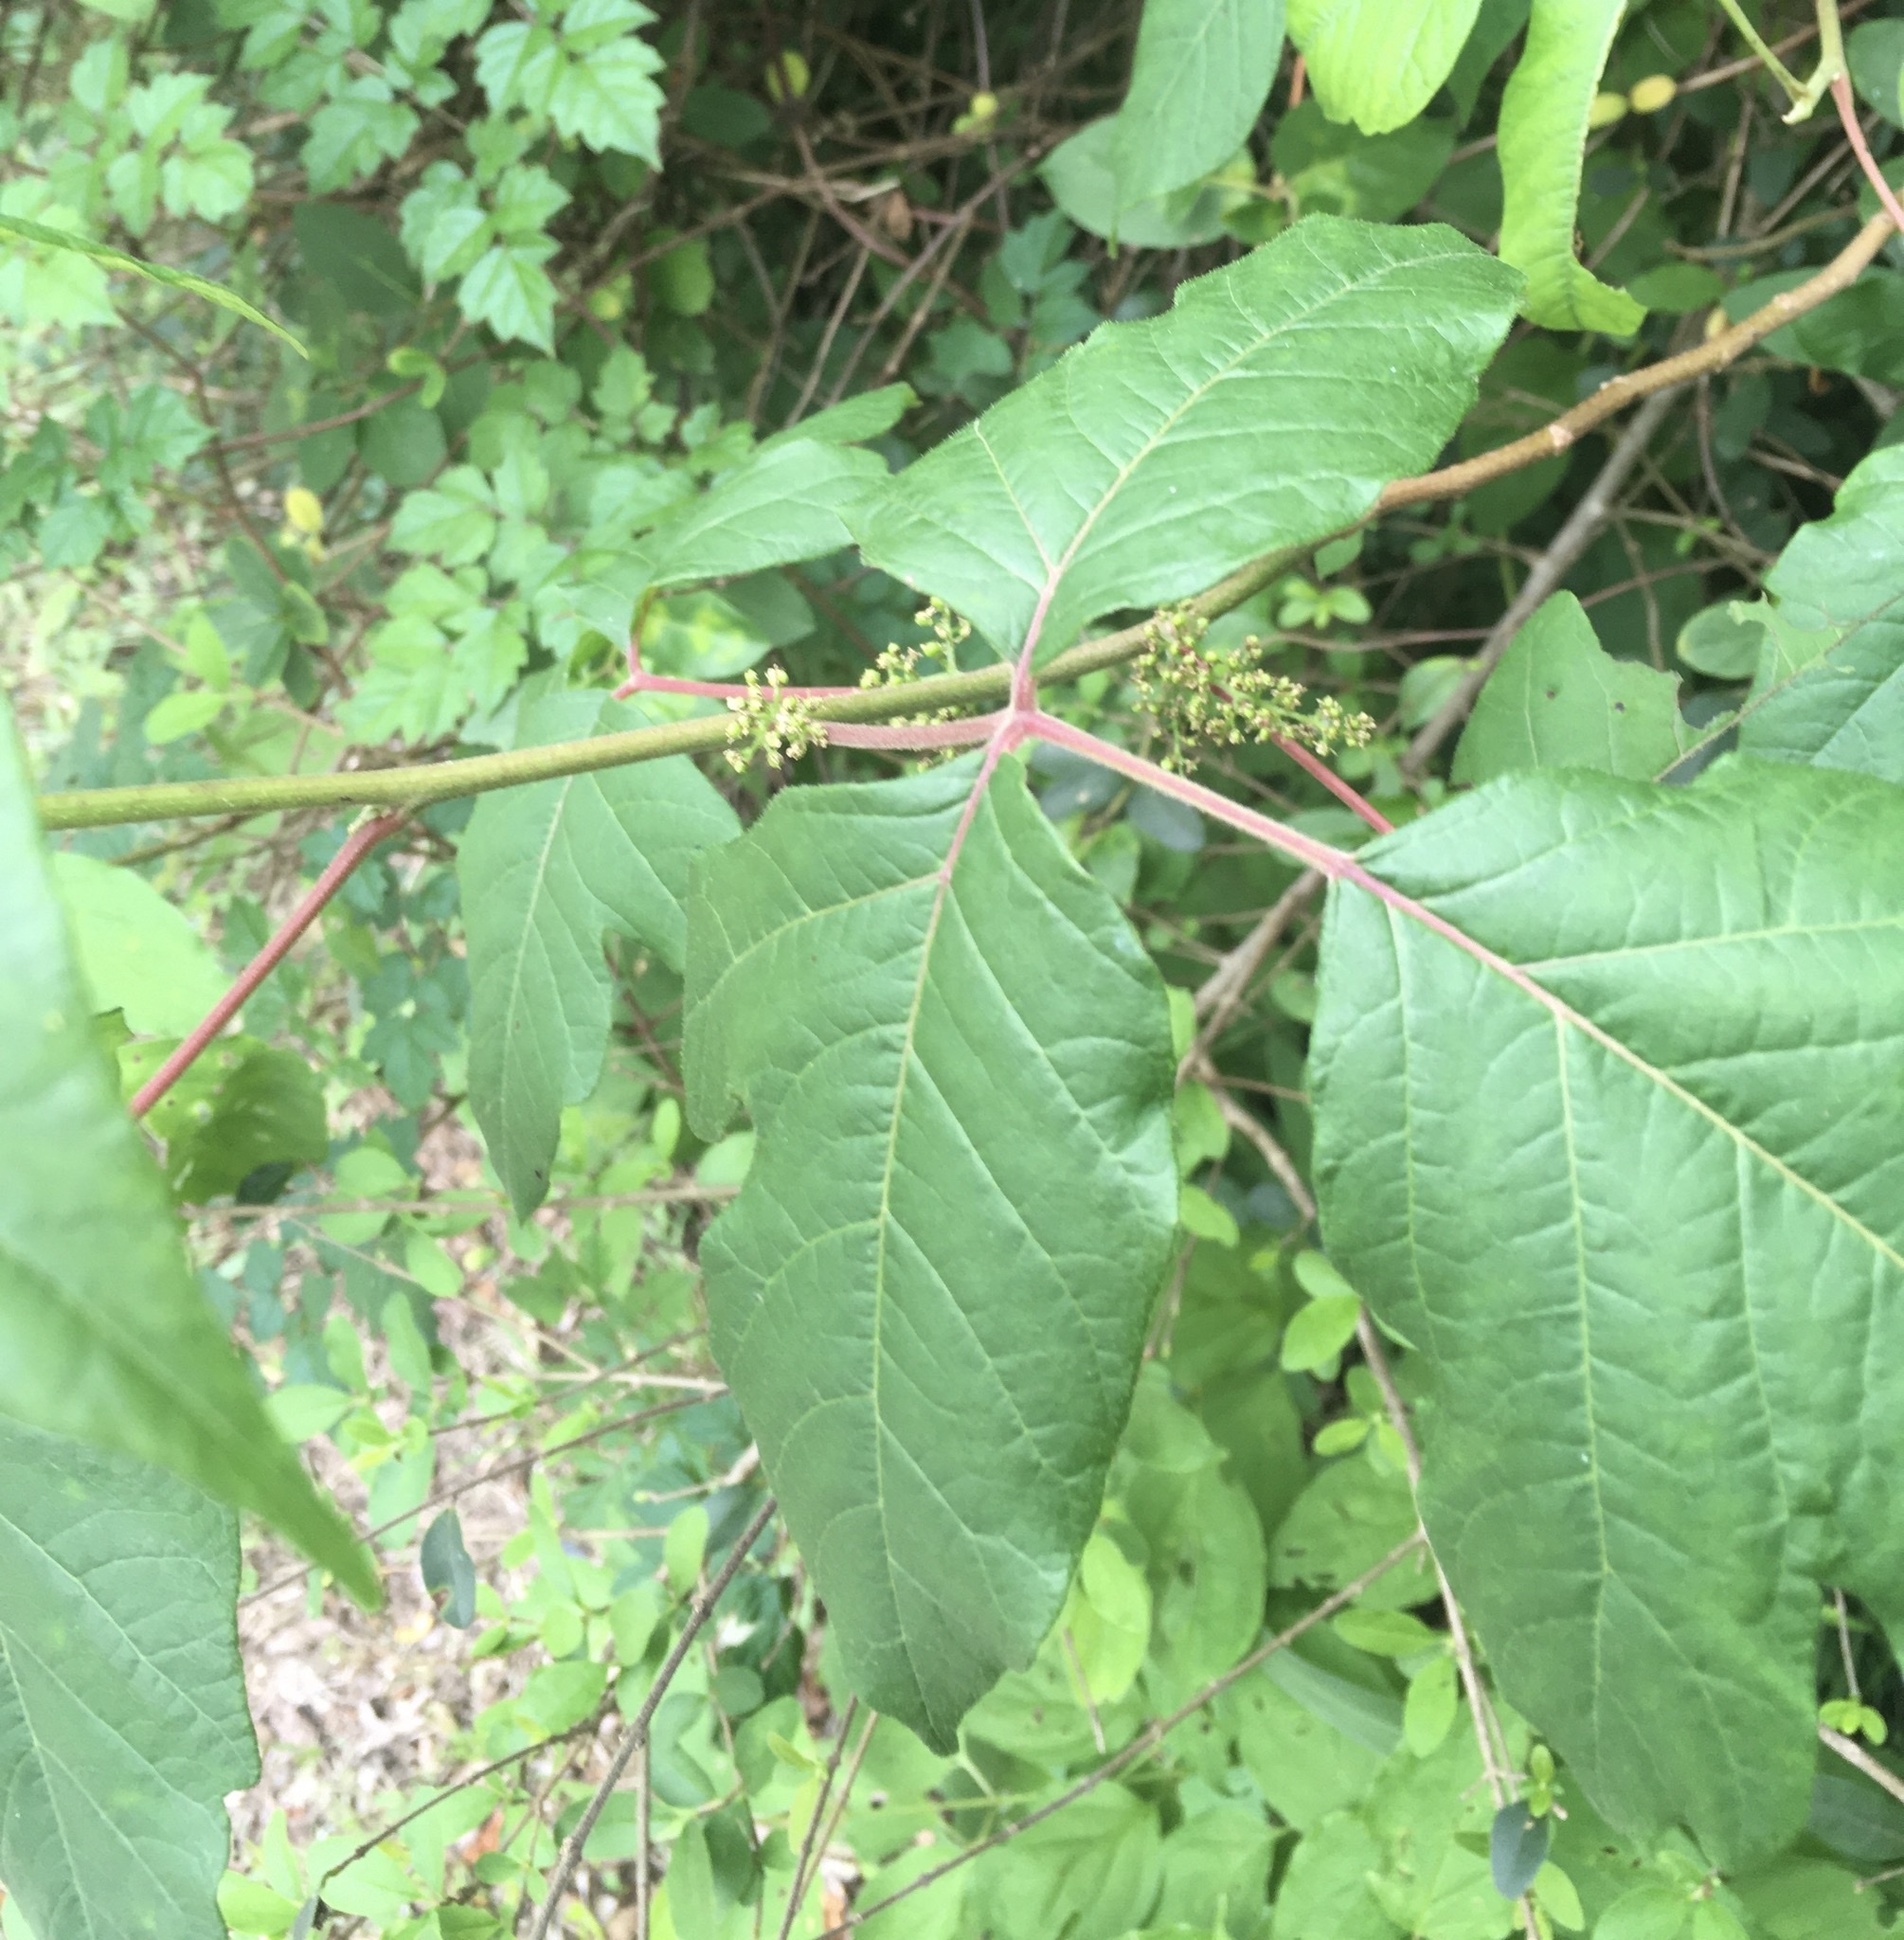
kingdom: Animalia
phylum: Arthropoda
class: Insecta
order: Lepidoptera
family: Lasiocampidae
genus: Malacosoma
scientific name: Malacosoma disstria
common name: Forest tent caterpillar
